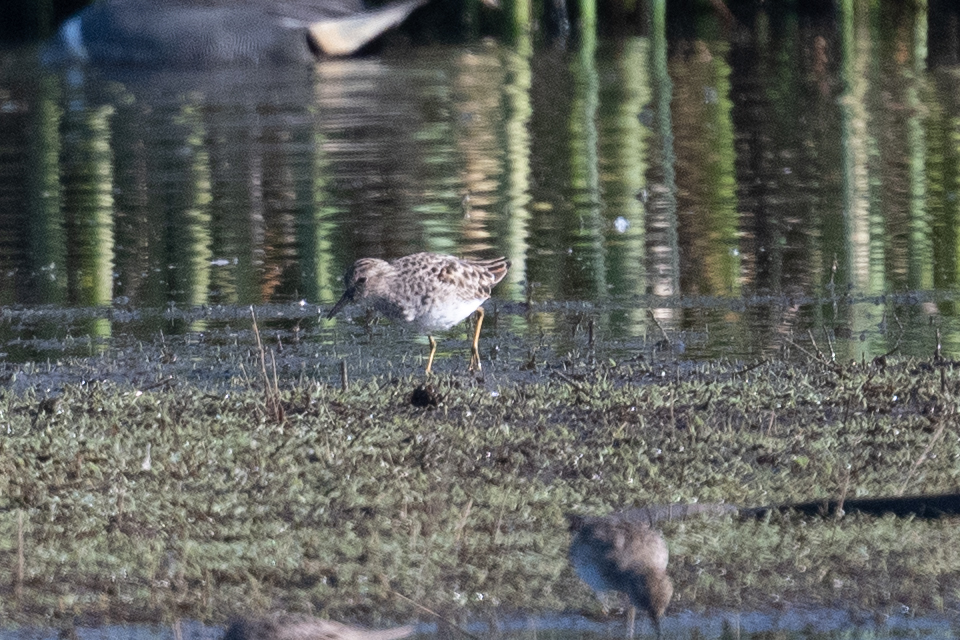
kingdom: Animalia
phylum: Chordata
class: Aves
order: Charadriiformes
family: Scolopacidae
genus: Calidris
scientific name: Calidris minutilla
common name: Least sandpiper
